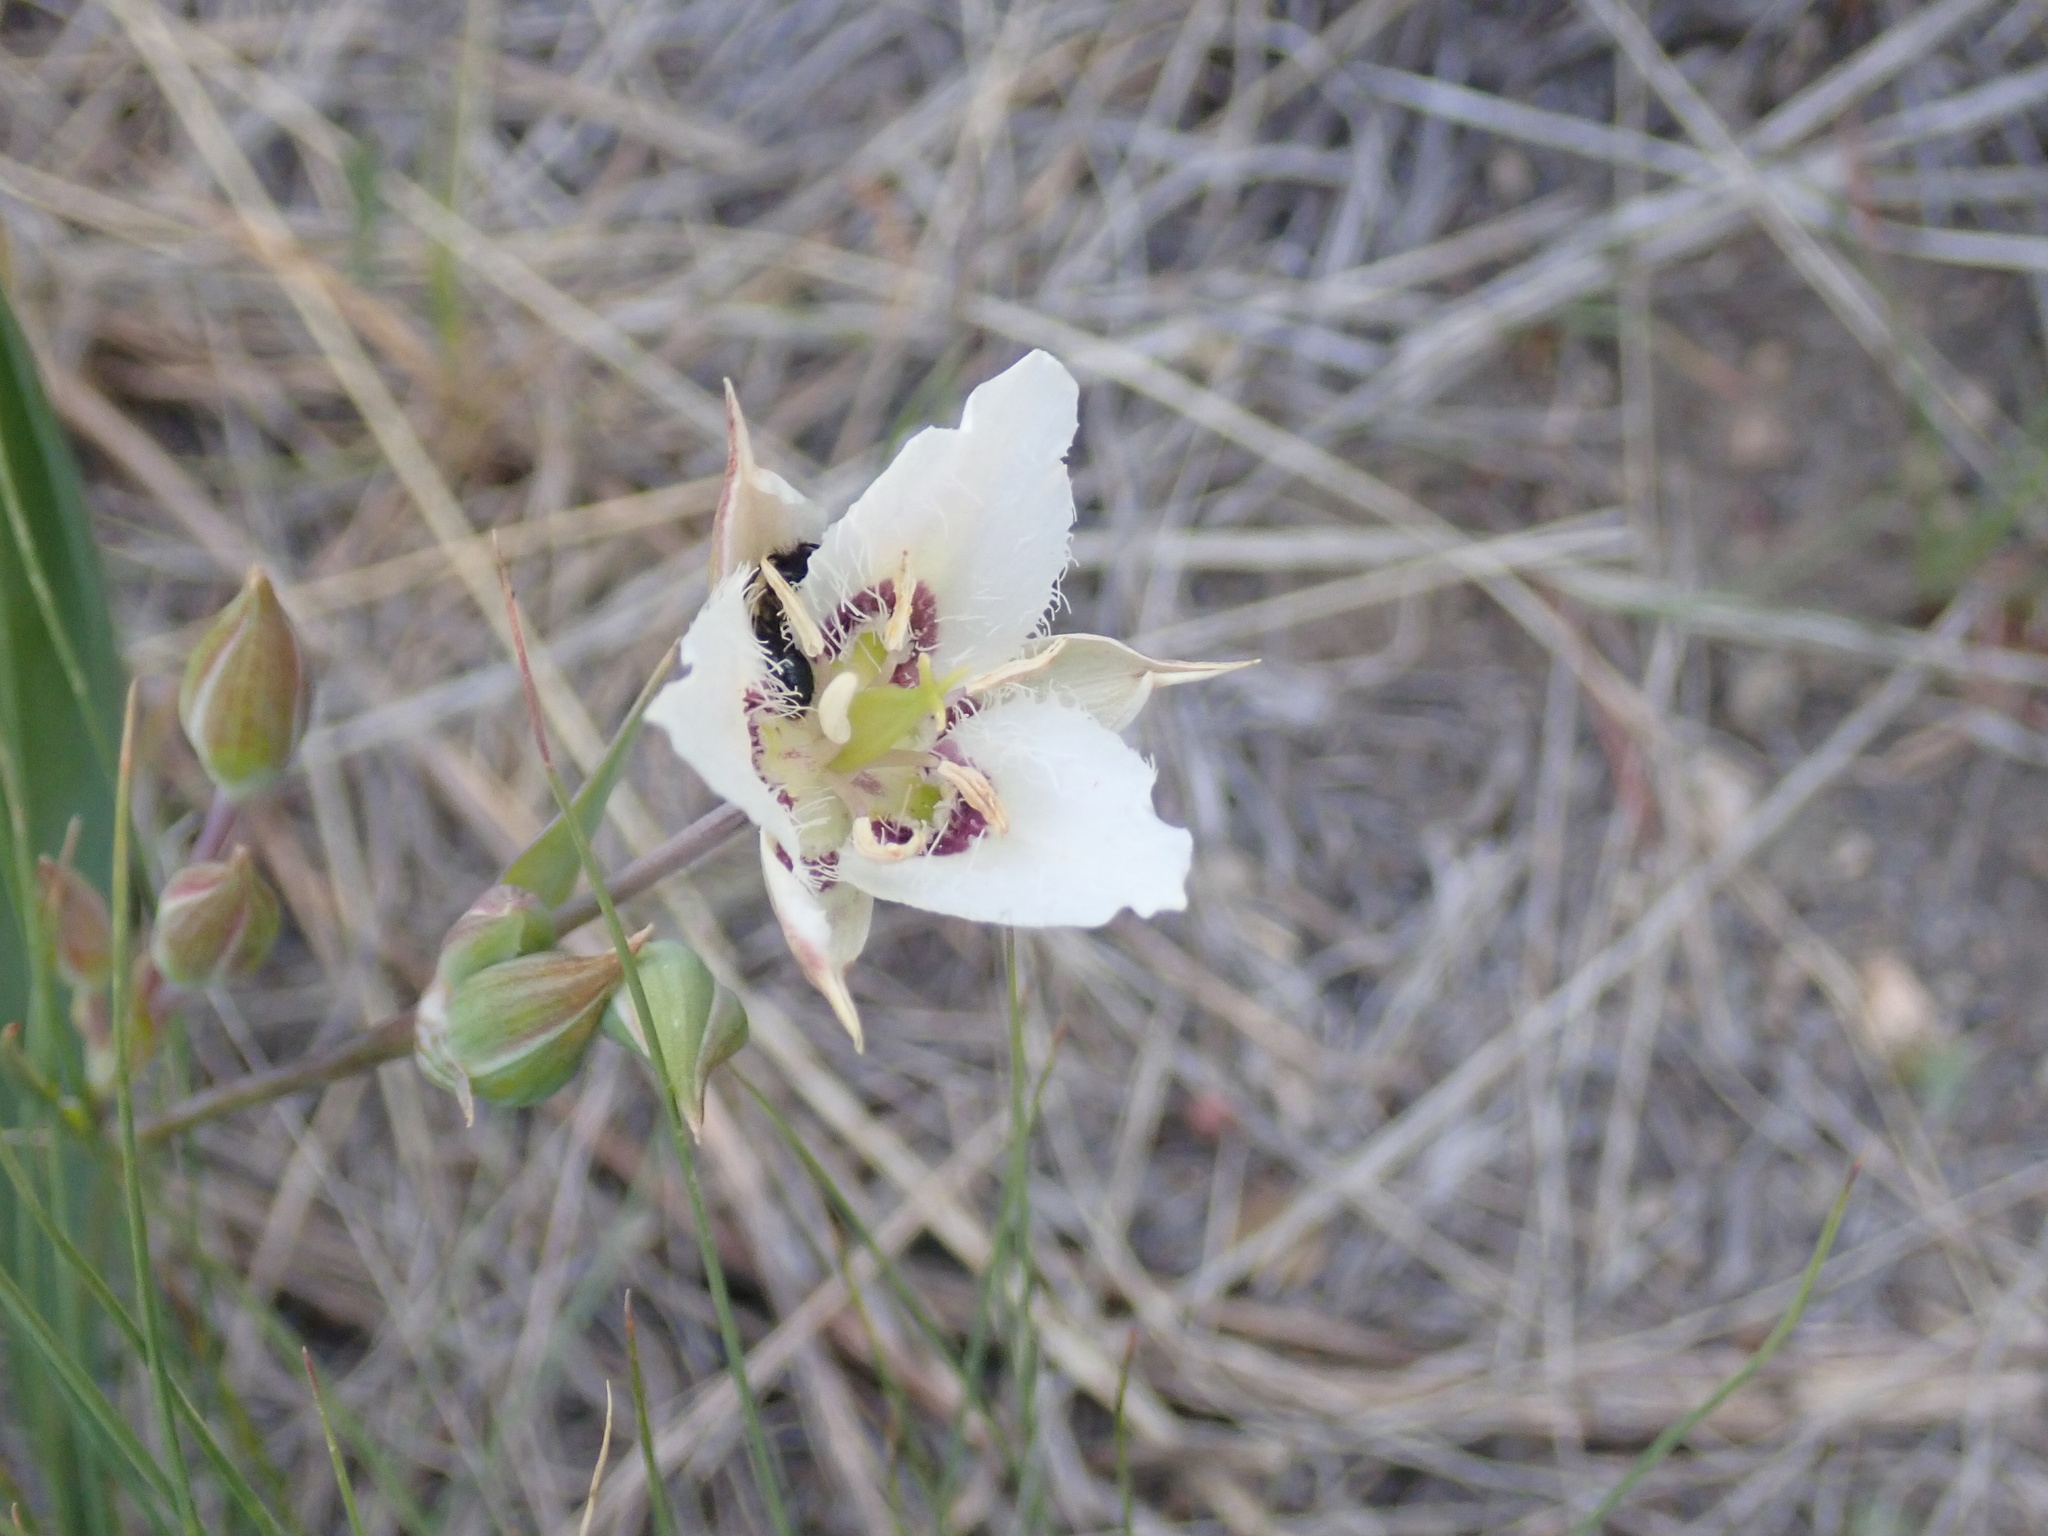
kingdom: Plantae
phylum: Tracheophyta
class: Liliopsida
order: Liliales
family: Liliaceae
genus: Calochortus
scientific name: Calochortus lyallii
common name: Lyall's mariposa lily
